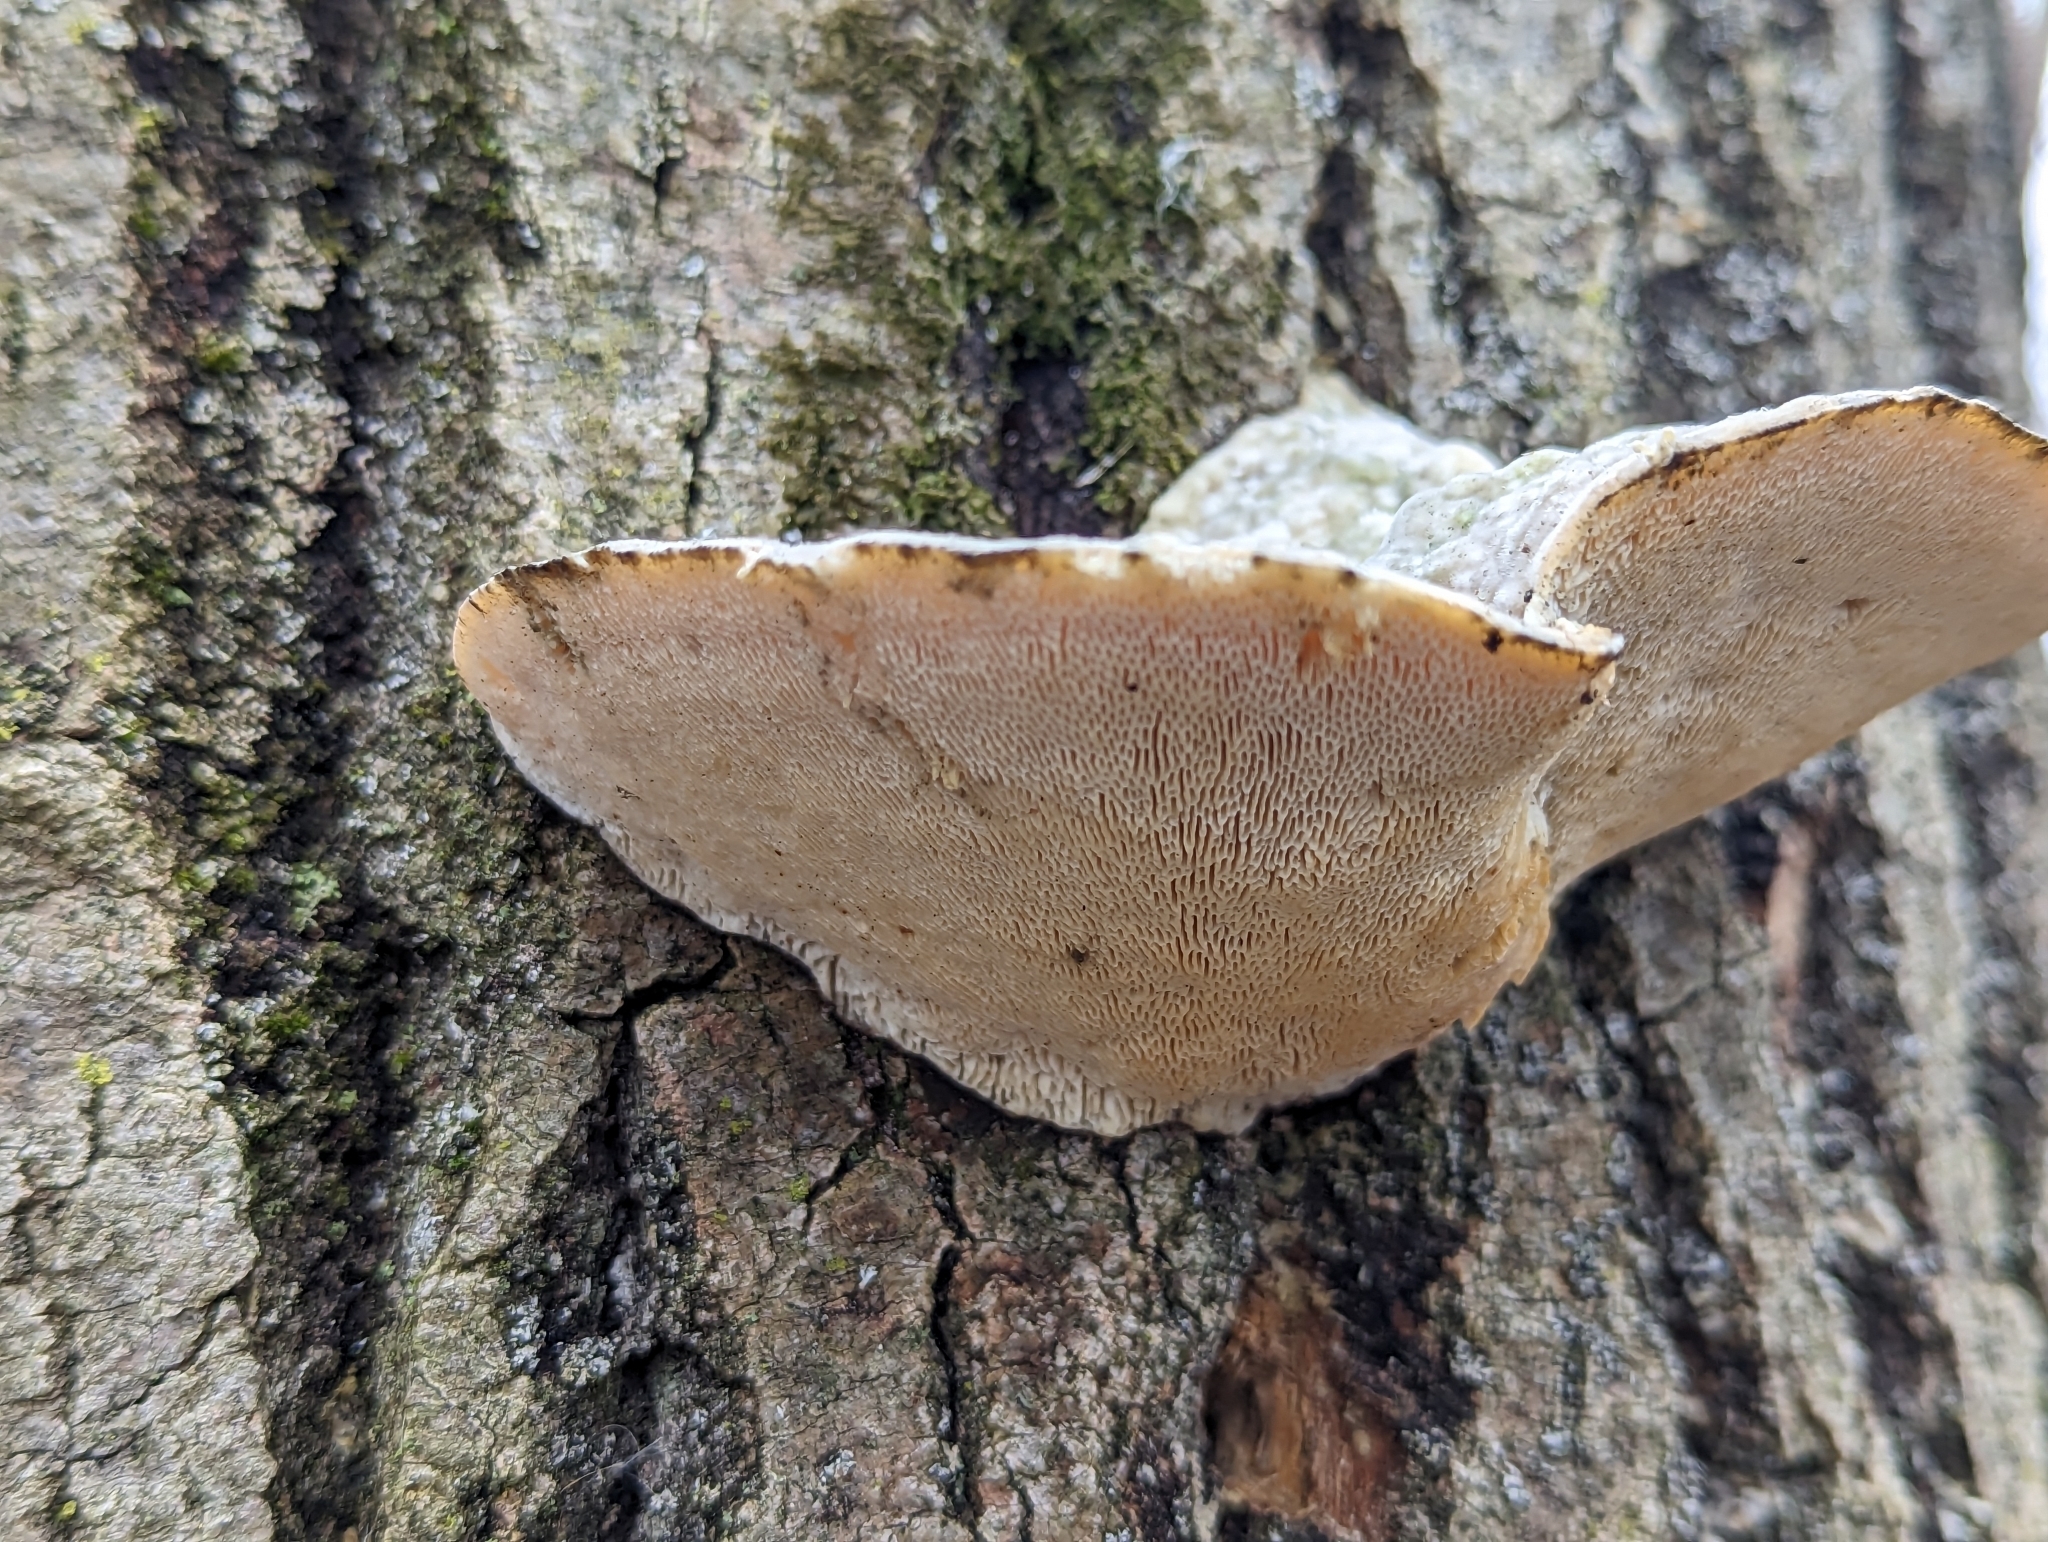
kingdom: Fungi
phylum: Basidiomycota
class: Agaricomycetes
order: Polyporales
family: Polyporaceae
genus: Trametes
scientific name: Trametes gibbosa
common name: Lumpy bracket
